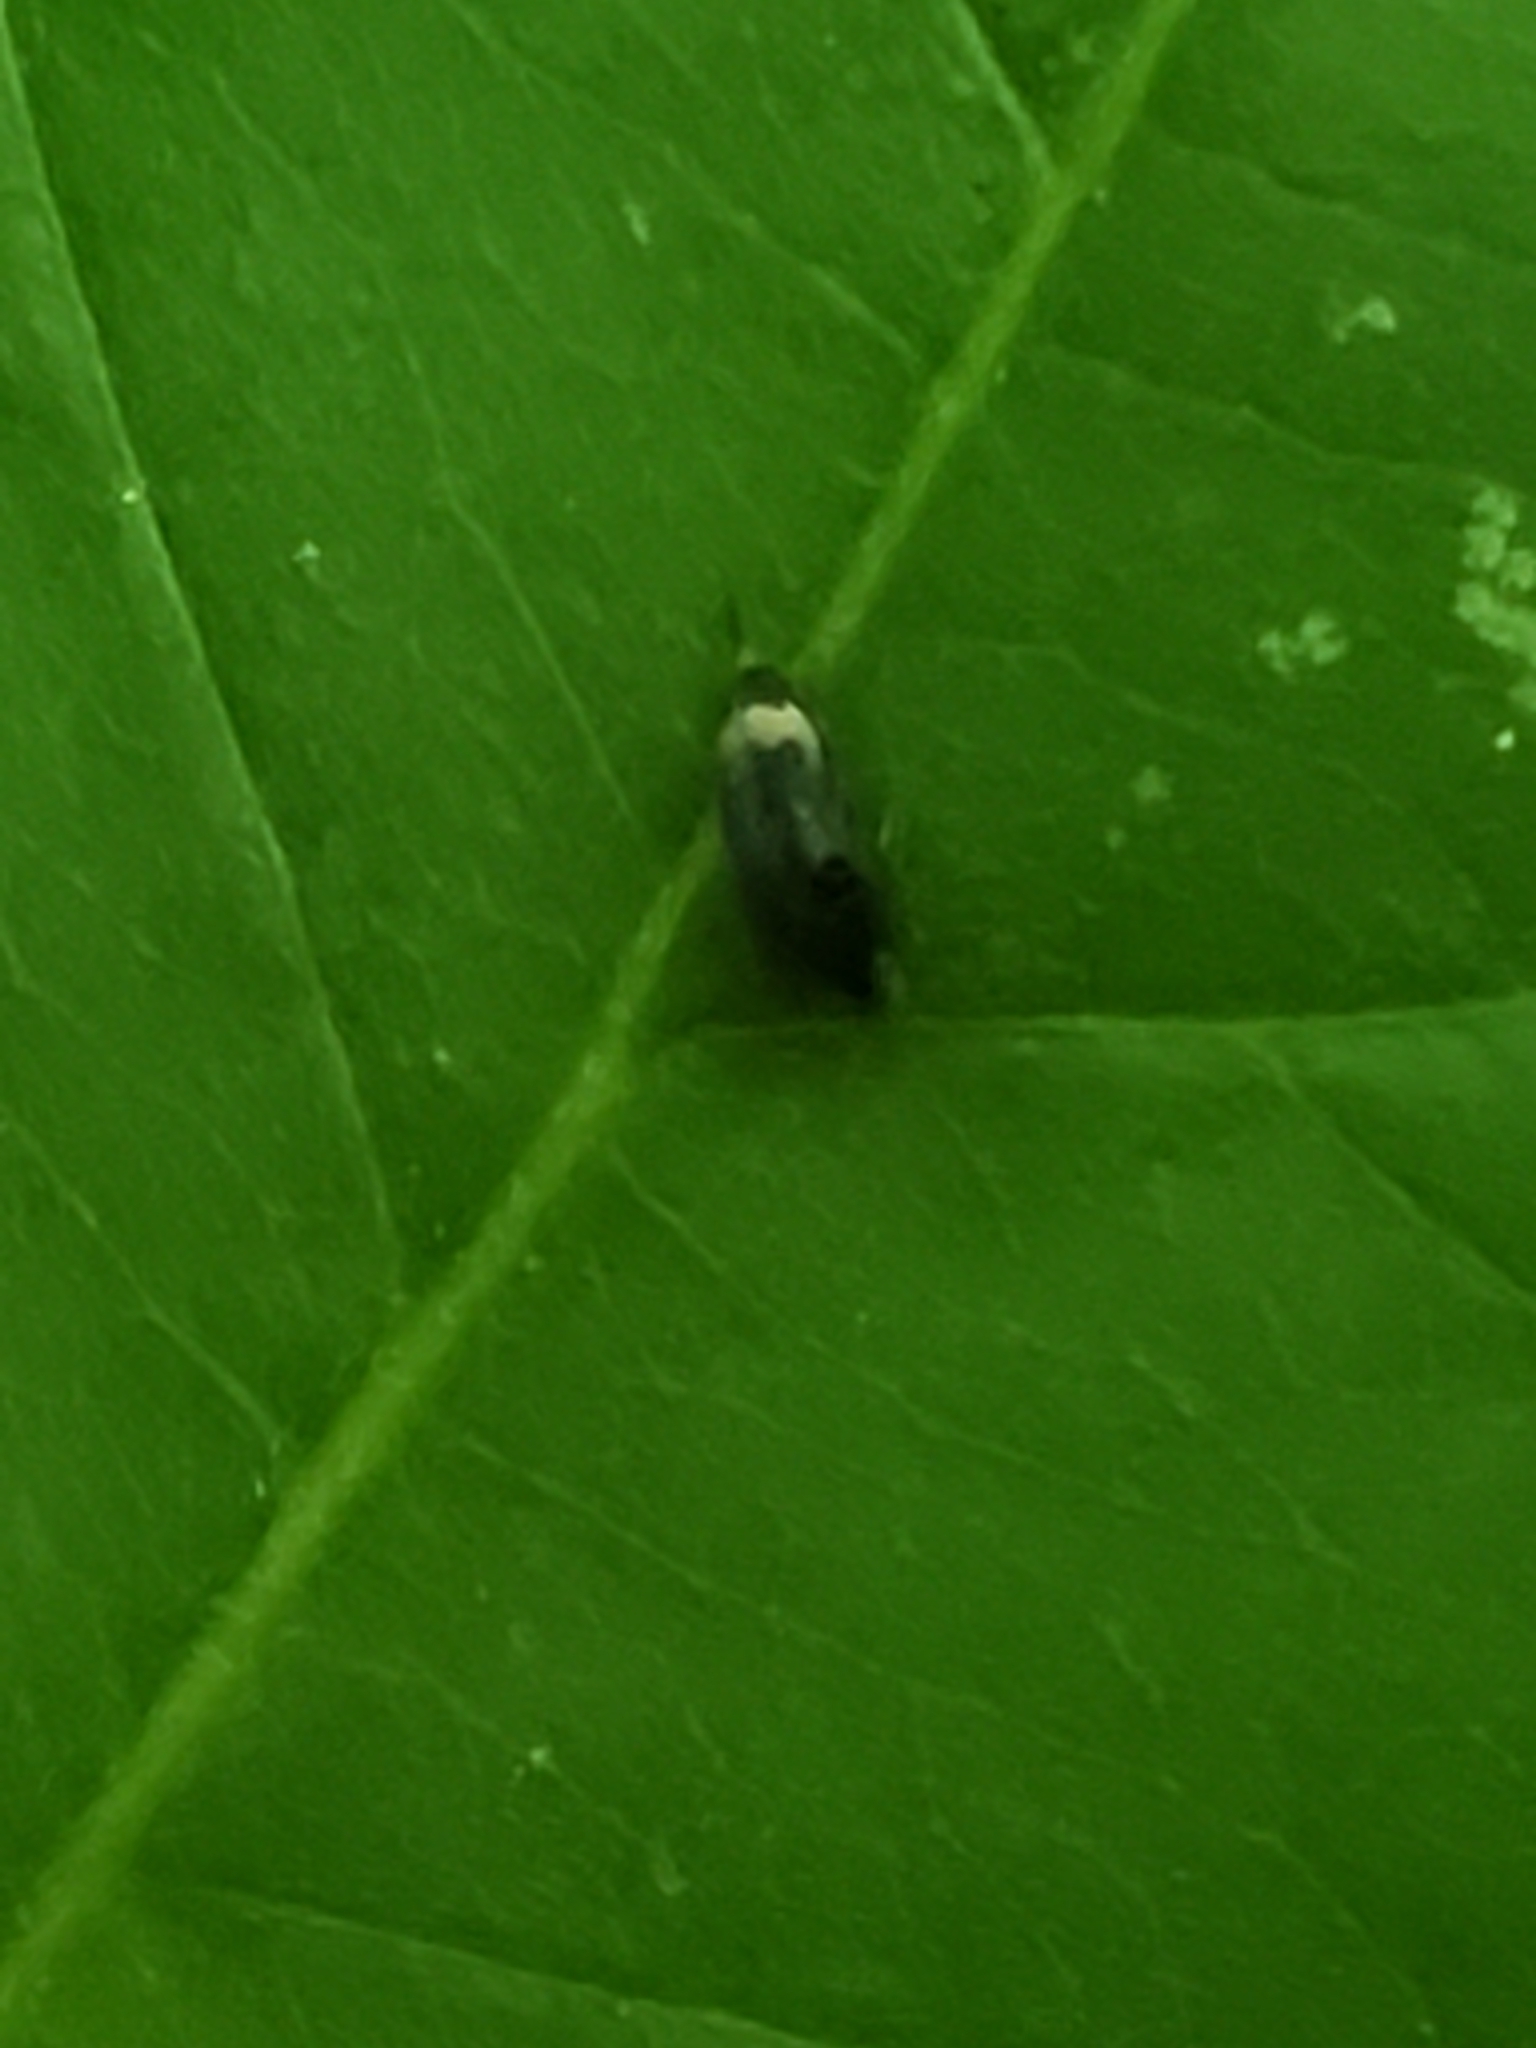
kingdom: Animalia
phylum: Arthropoda
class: Insecta
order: Coleoptera
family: Mordellidae
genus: Falsomordellistena
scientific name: Falsomordellistena hebraica
